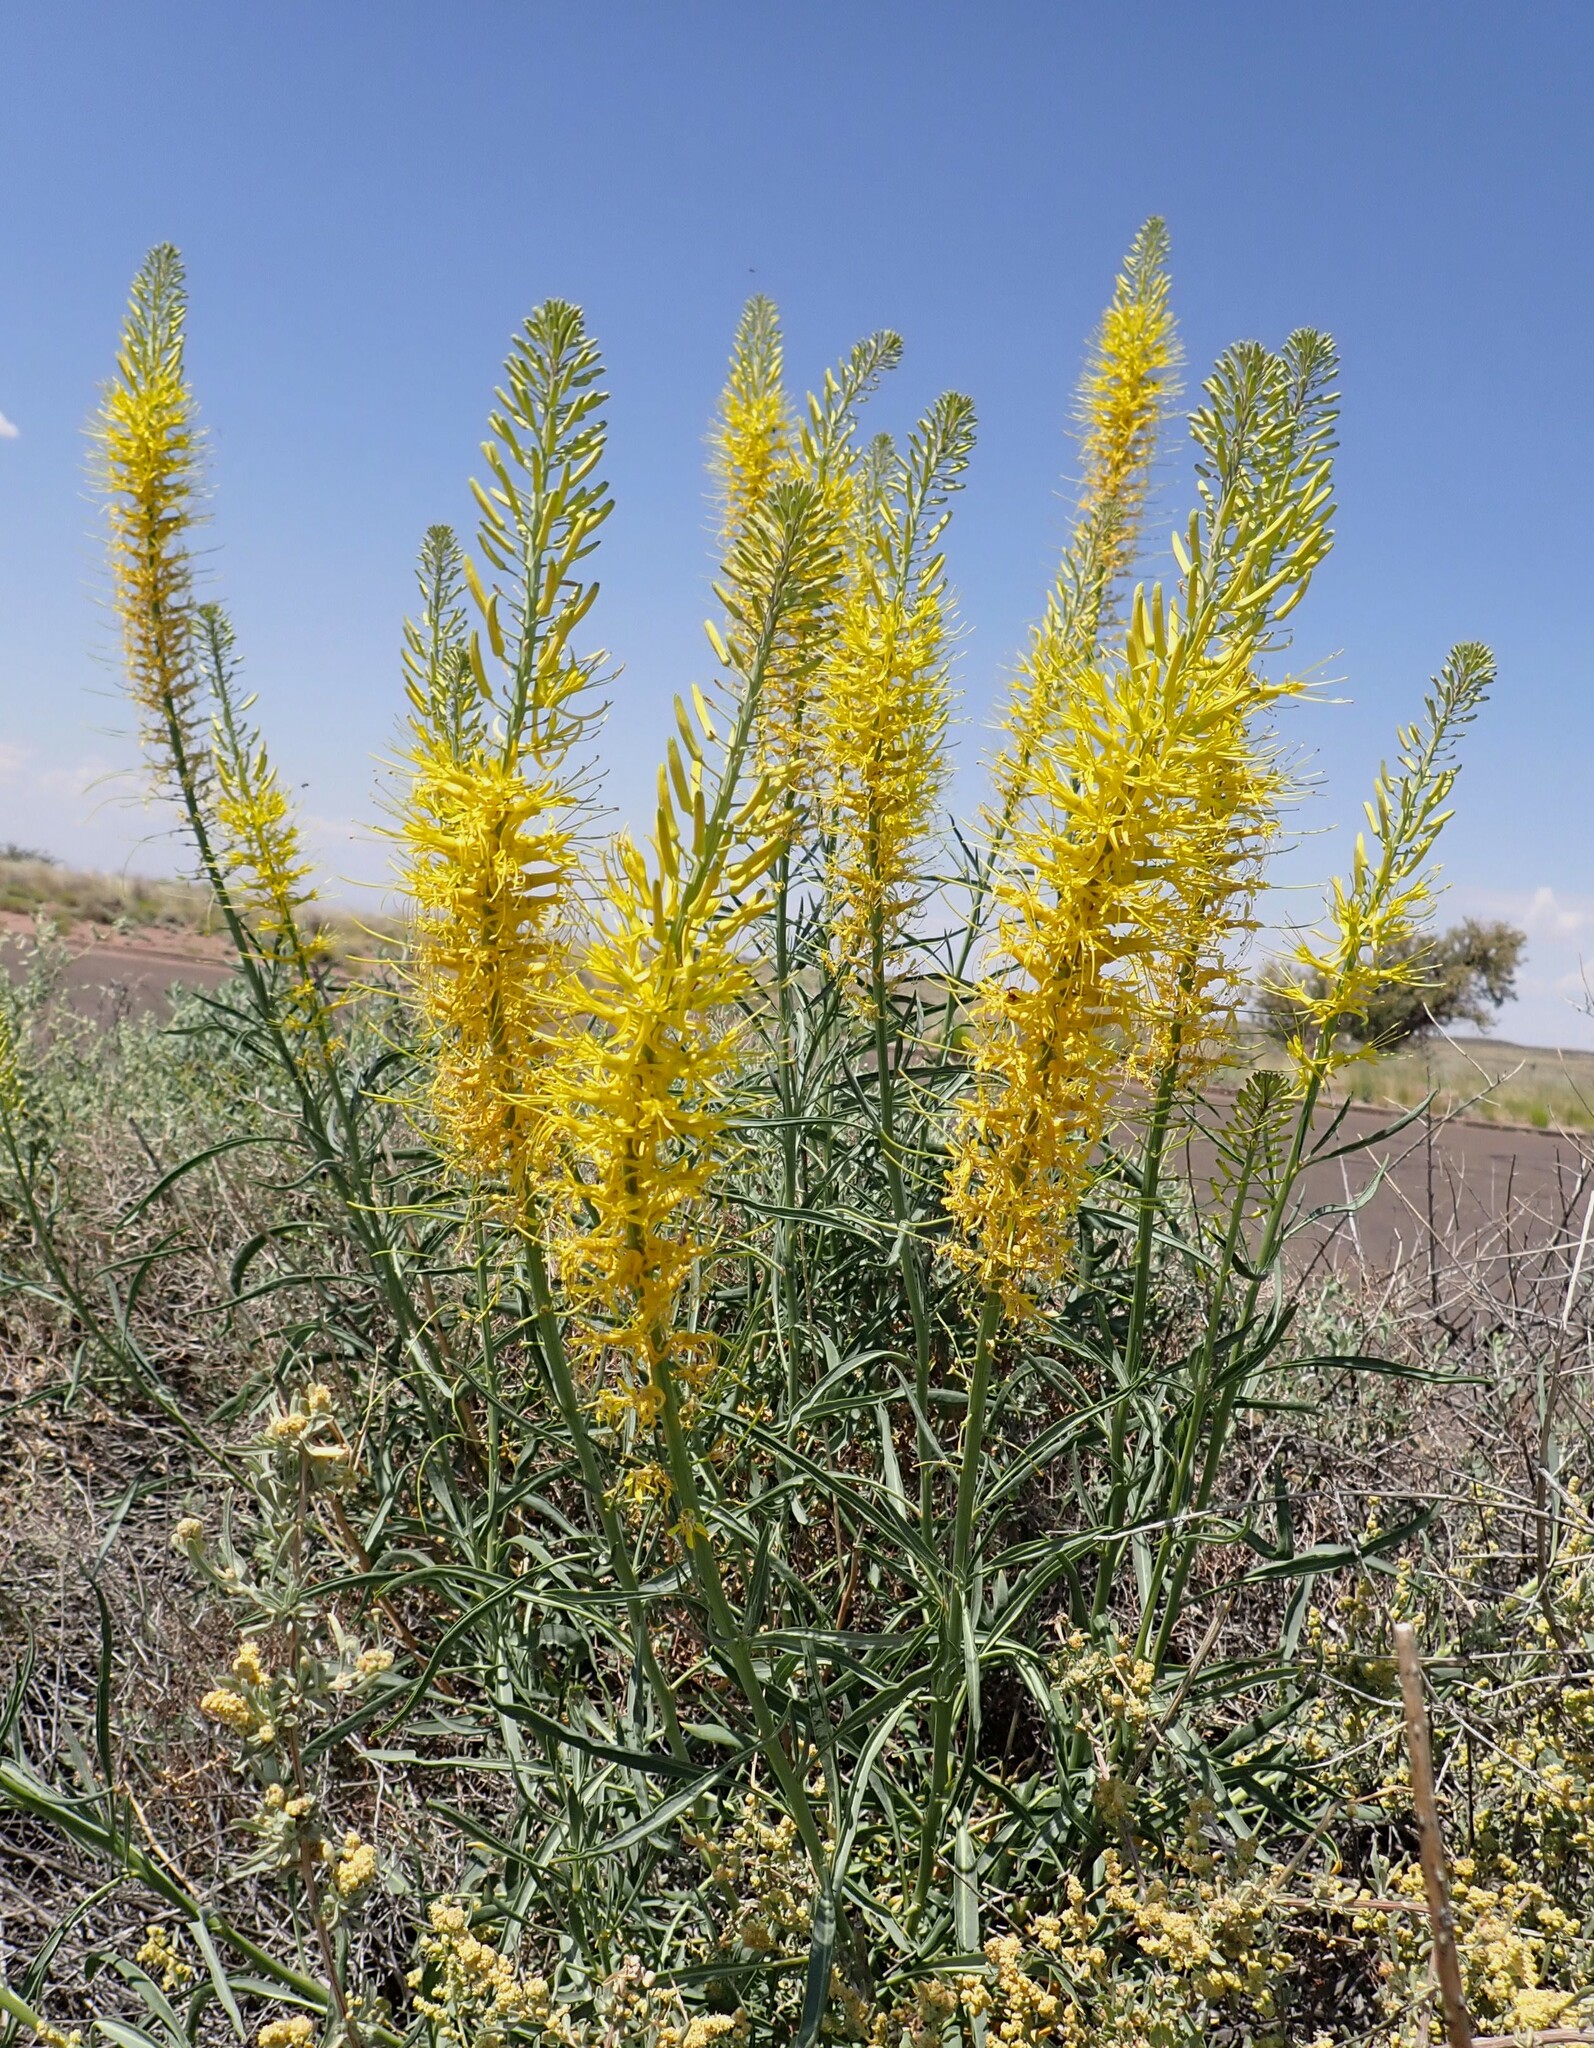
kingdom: Plantae
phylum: Tracheophyta
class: Magnoliopsida
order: Brassicales
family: Brassicaceae
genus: Stanleya
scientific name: Stanleya pinnata
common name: Prince's-plume
